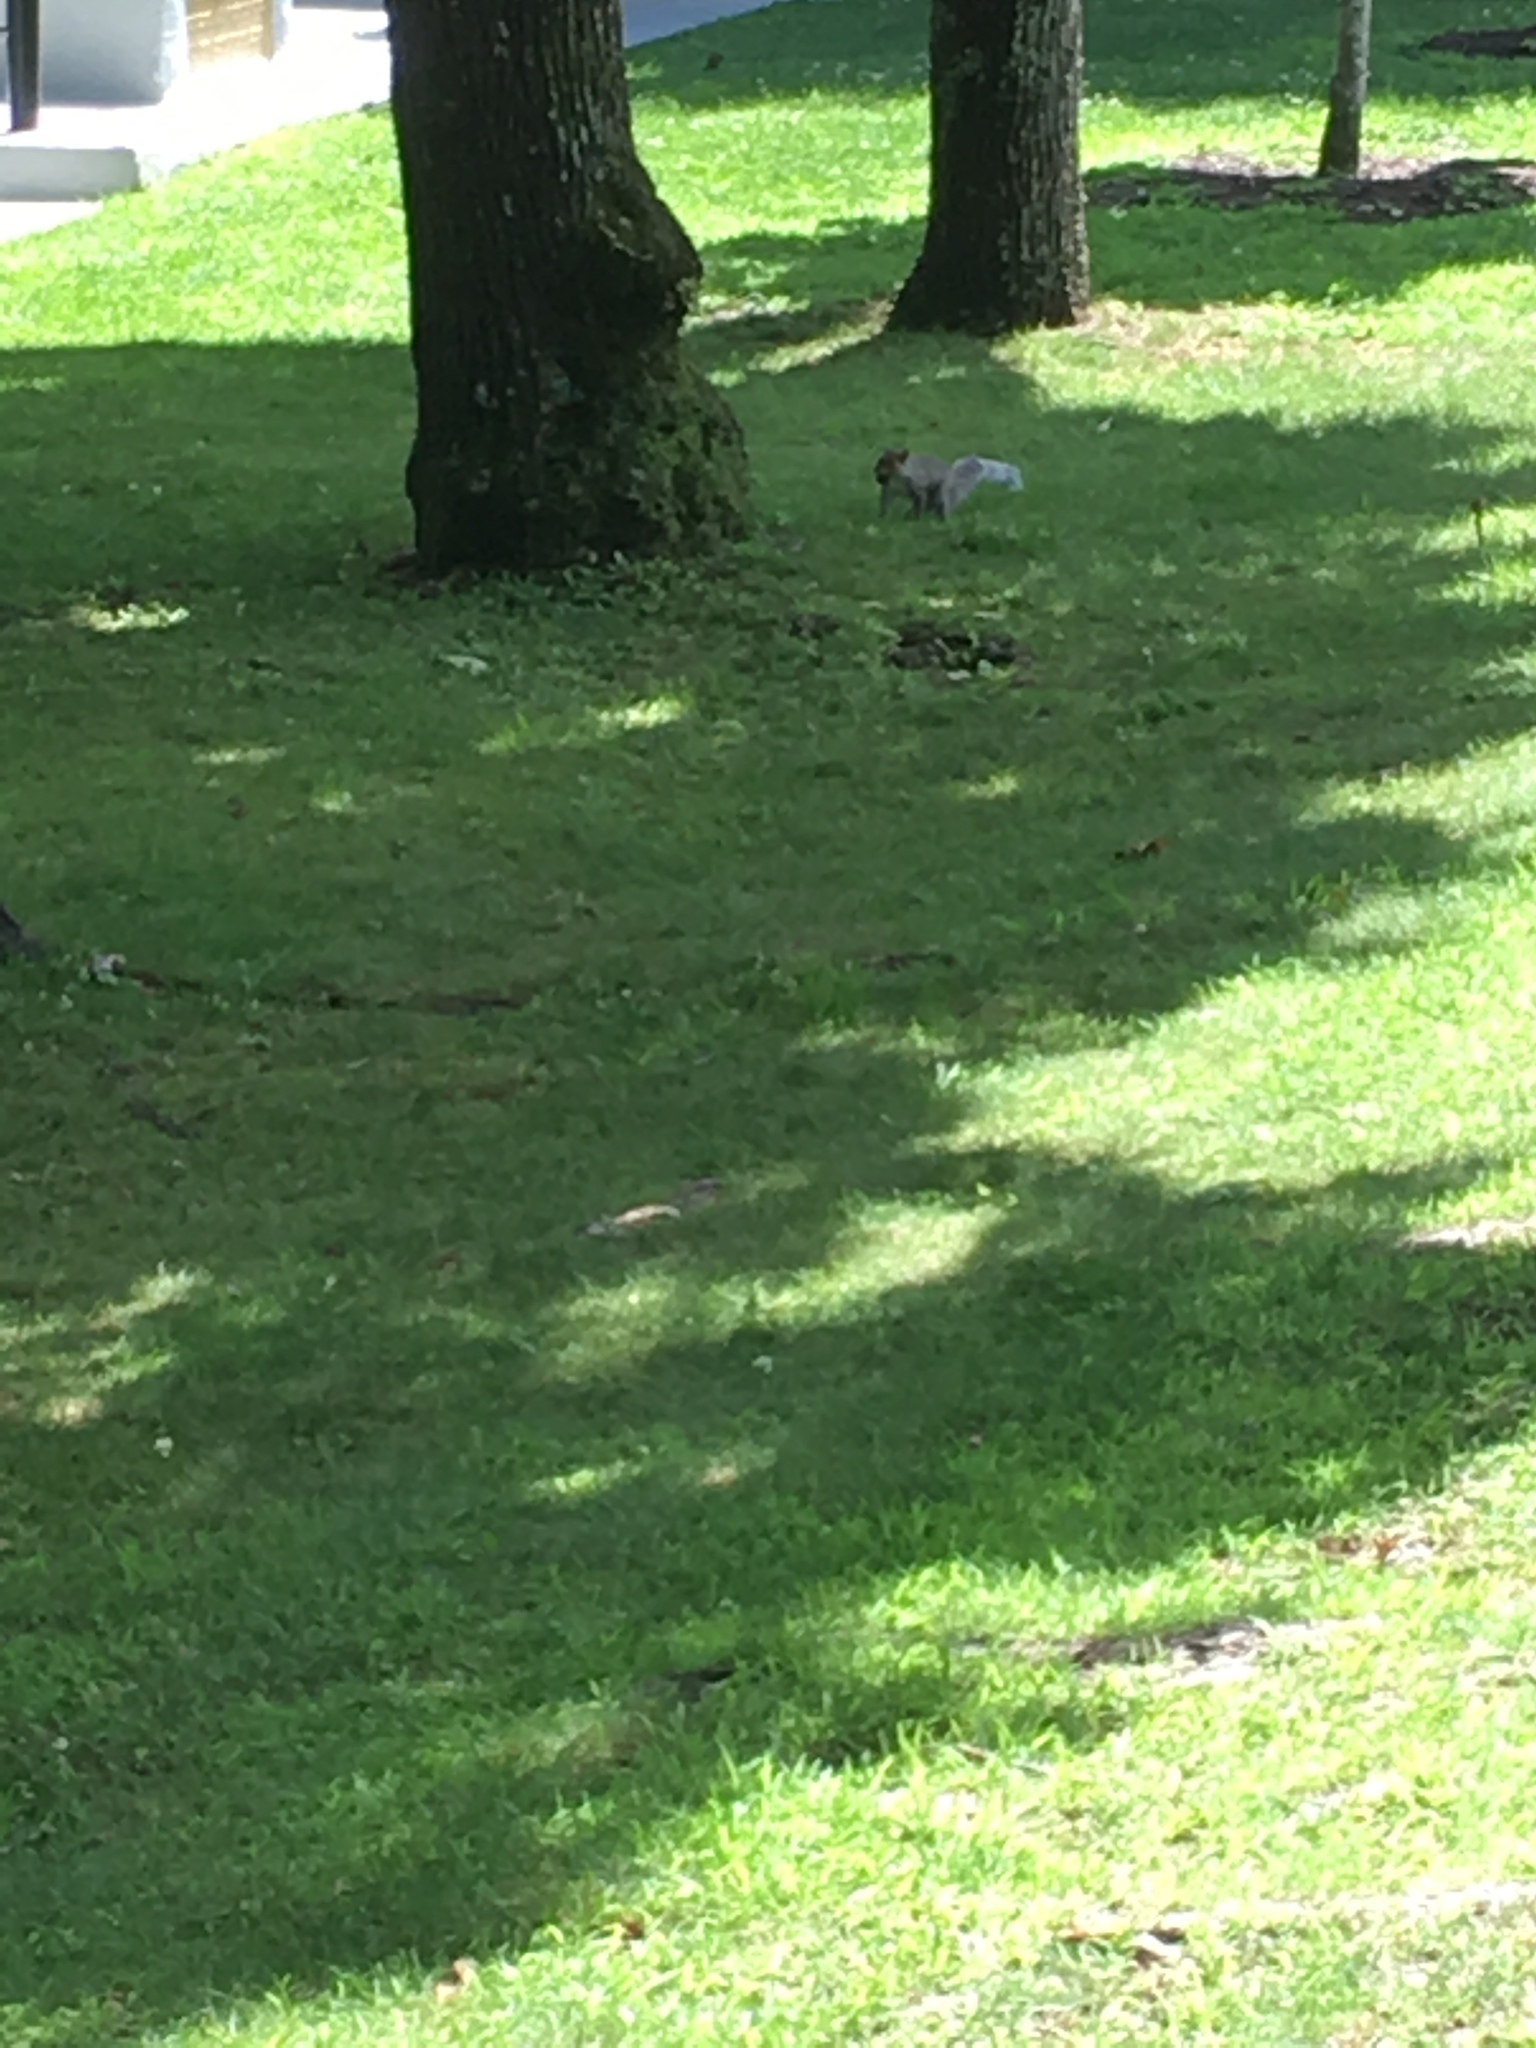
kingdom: Animalia
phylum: Chordata
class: Mammalia
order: Rodentia
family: Sciuridae
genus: Sciurus
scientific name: Sciurus carolinensis
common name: Eastern gray squirrel
